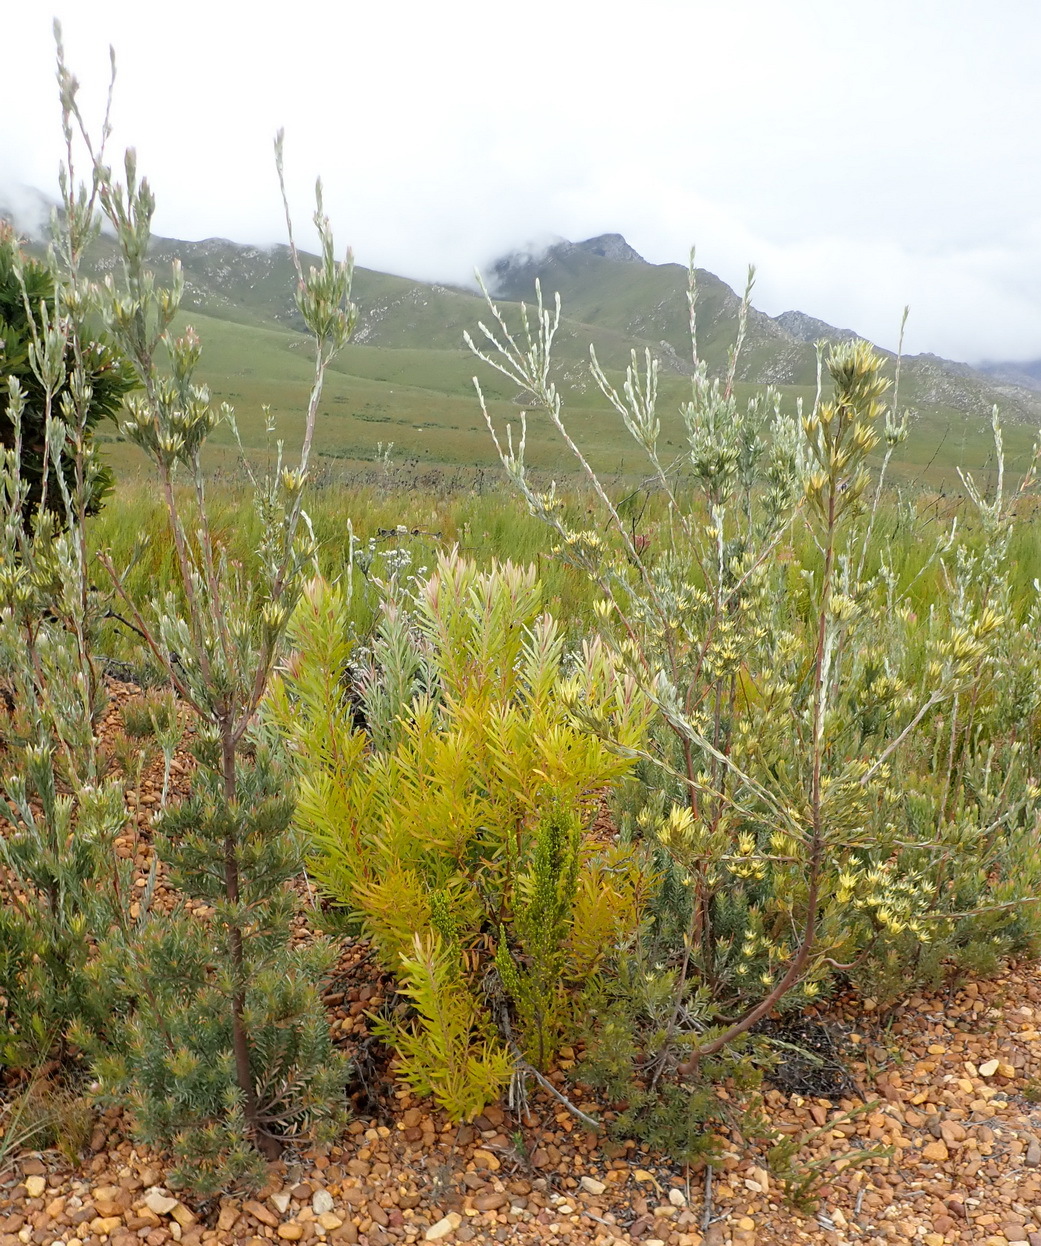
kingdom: Plantae
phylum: Tracheophyta
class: Magnoliopsida
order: Proteales
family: Proteaceae
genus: Leucadendron
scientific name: Leucadendron uliginosum
